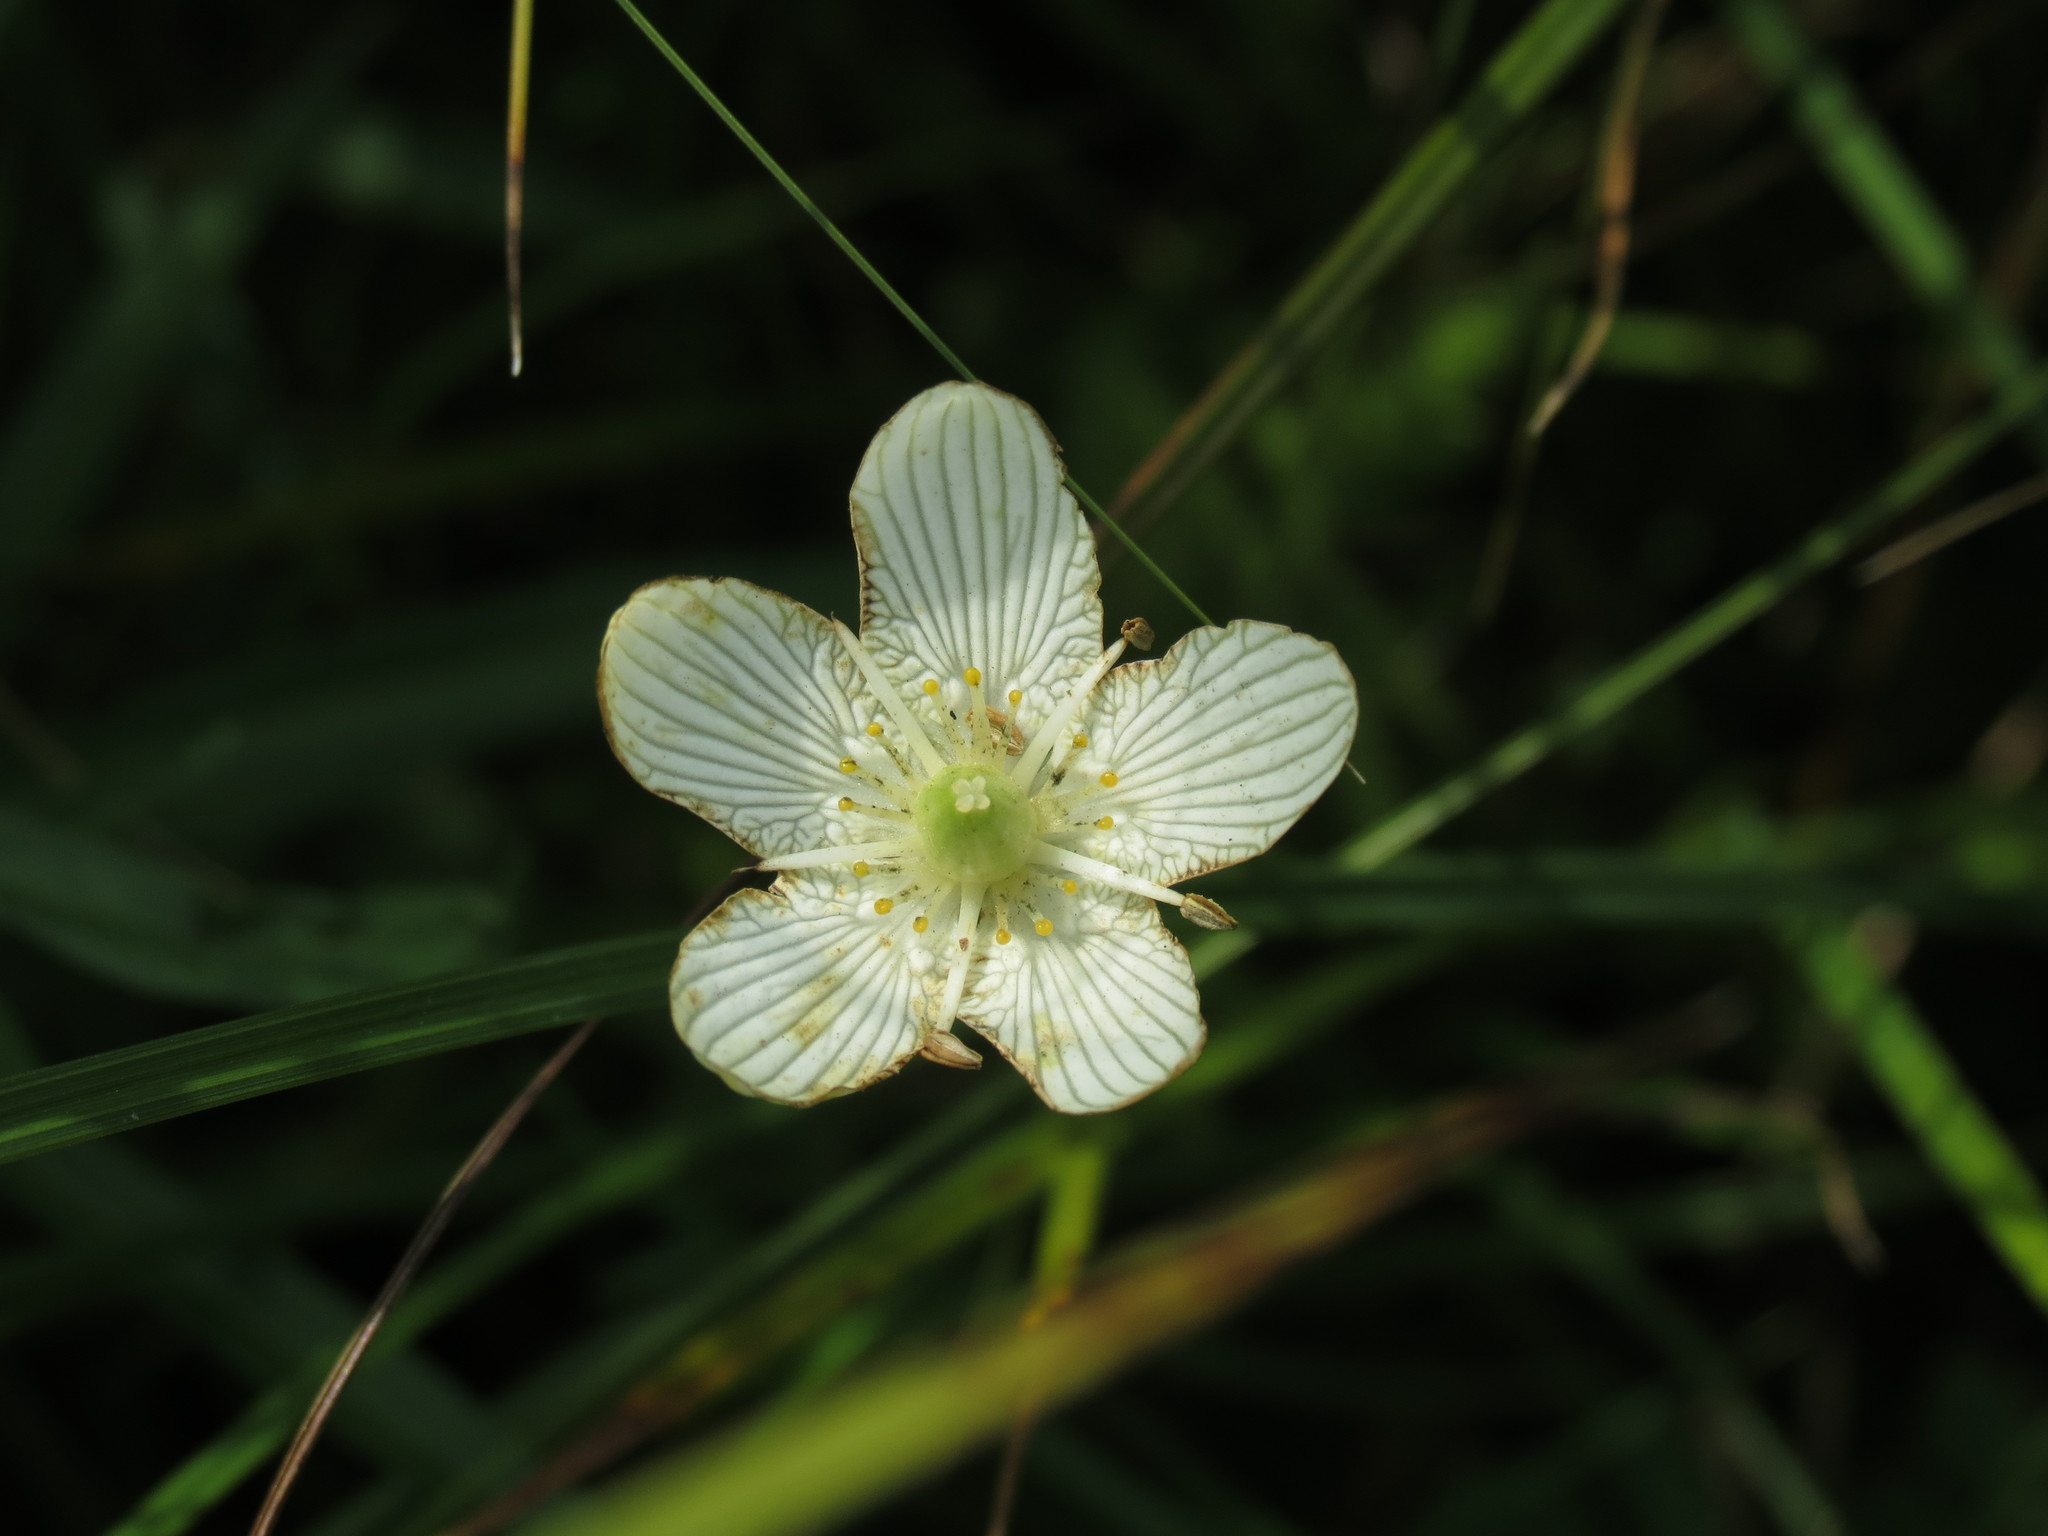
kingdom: Plantae
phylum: Tracheophyta
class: Magnoliopsida
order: Celastrales
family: Parnassiaceae
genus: Parnassia
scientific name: Parnassia glauca
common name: American grass-of-parnassus
